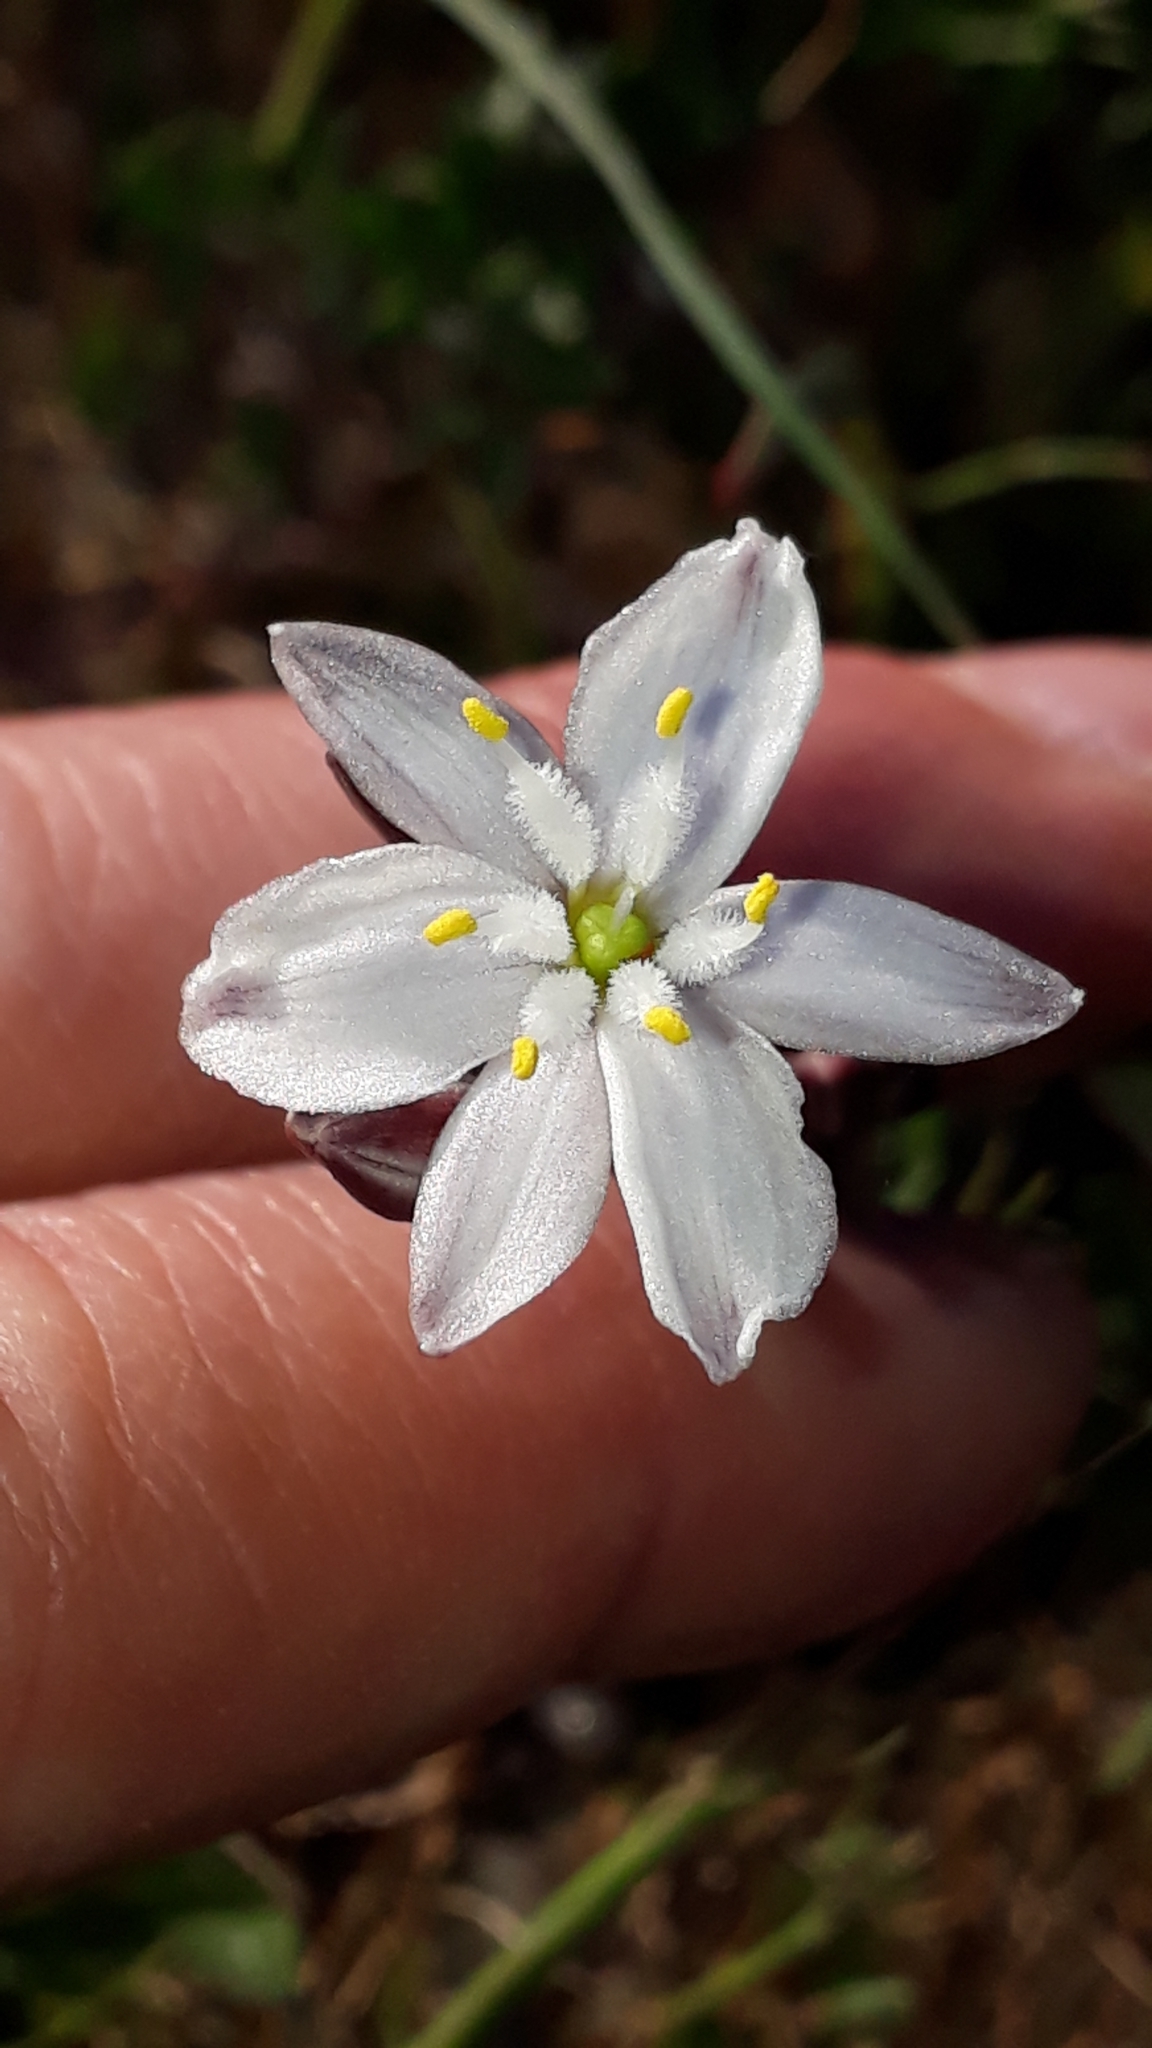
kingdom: Plantae
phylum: Tracheophyta
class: Liliopsida
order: Asparagales
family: Asphodelaceae
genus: Simethis
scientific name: Simethis mattiazzii
